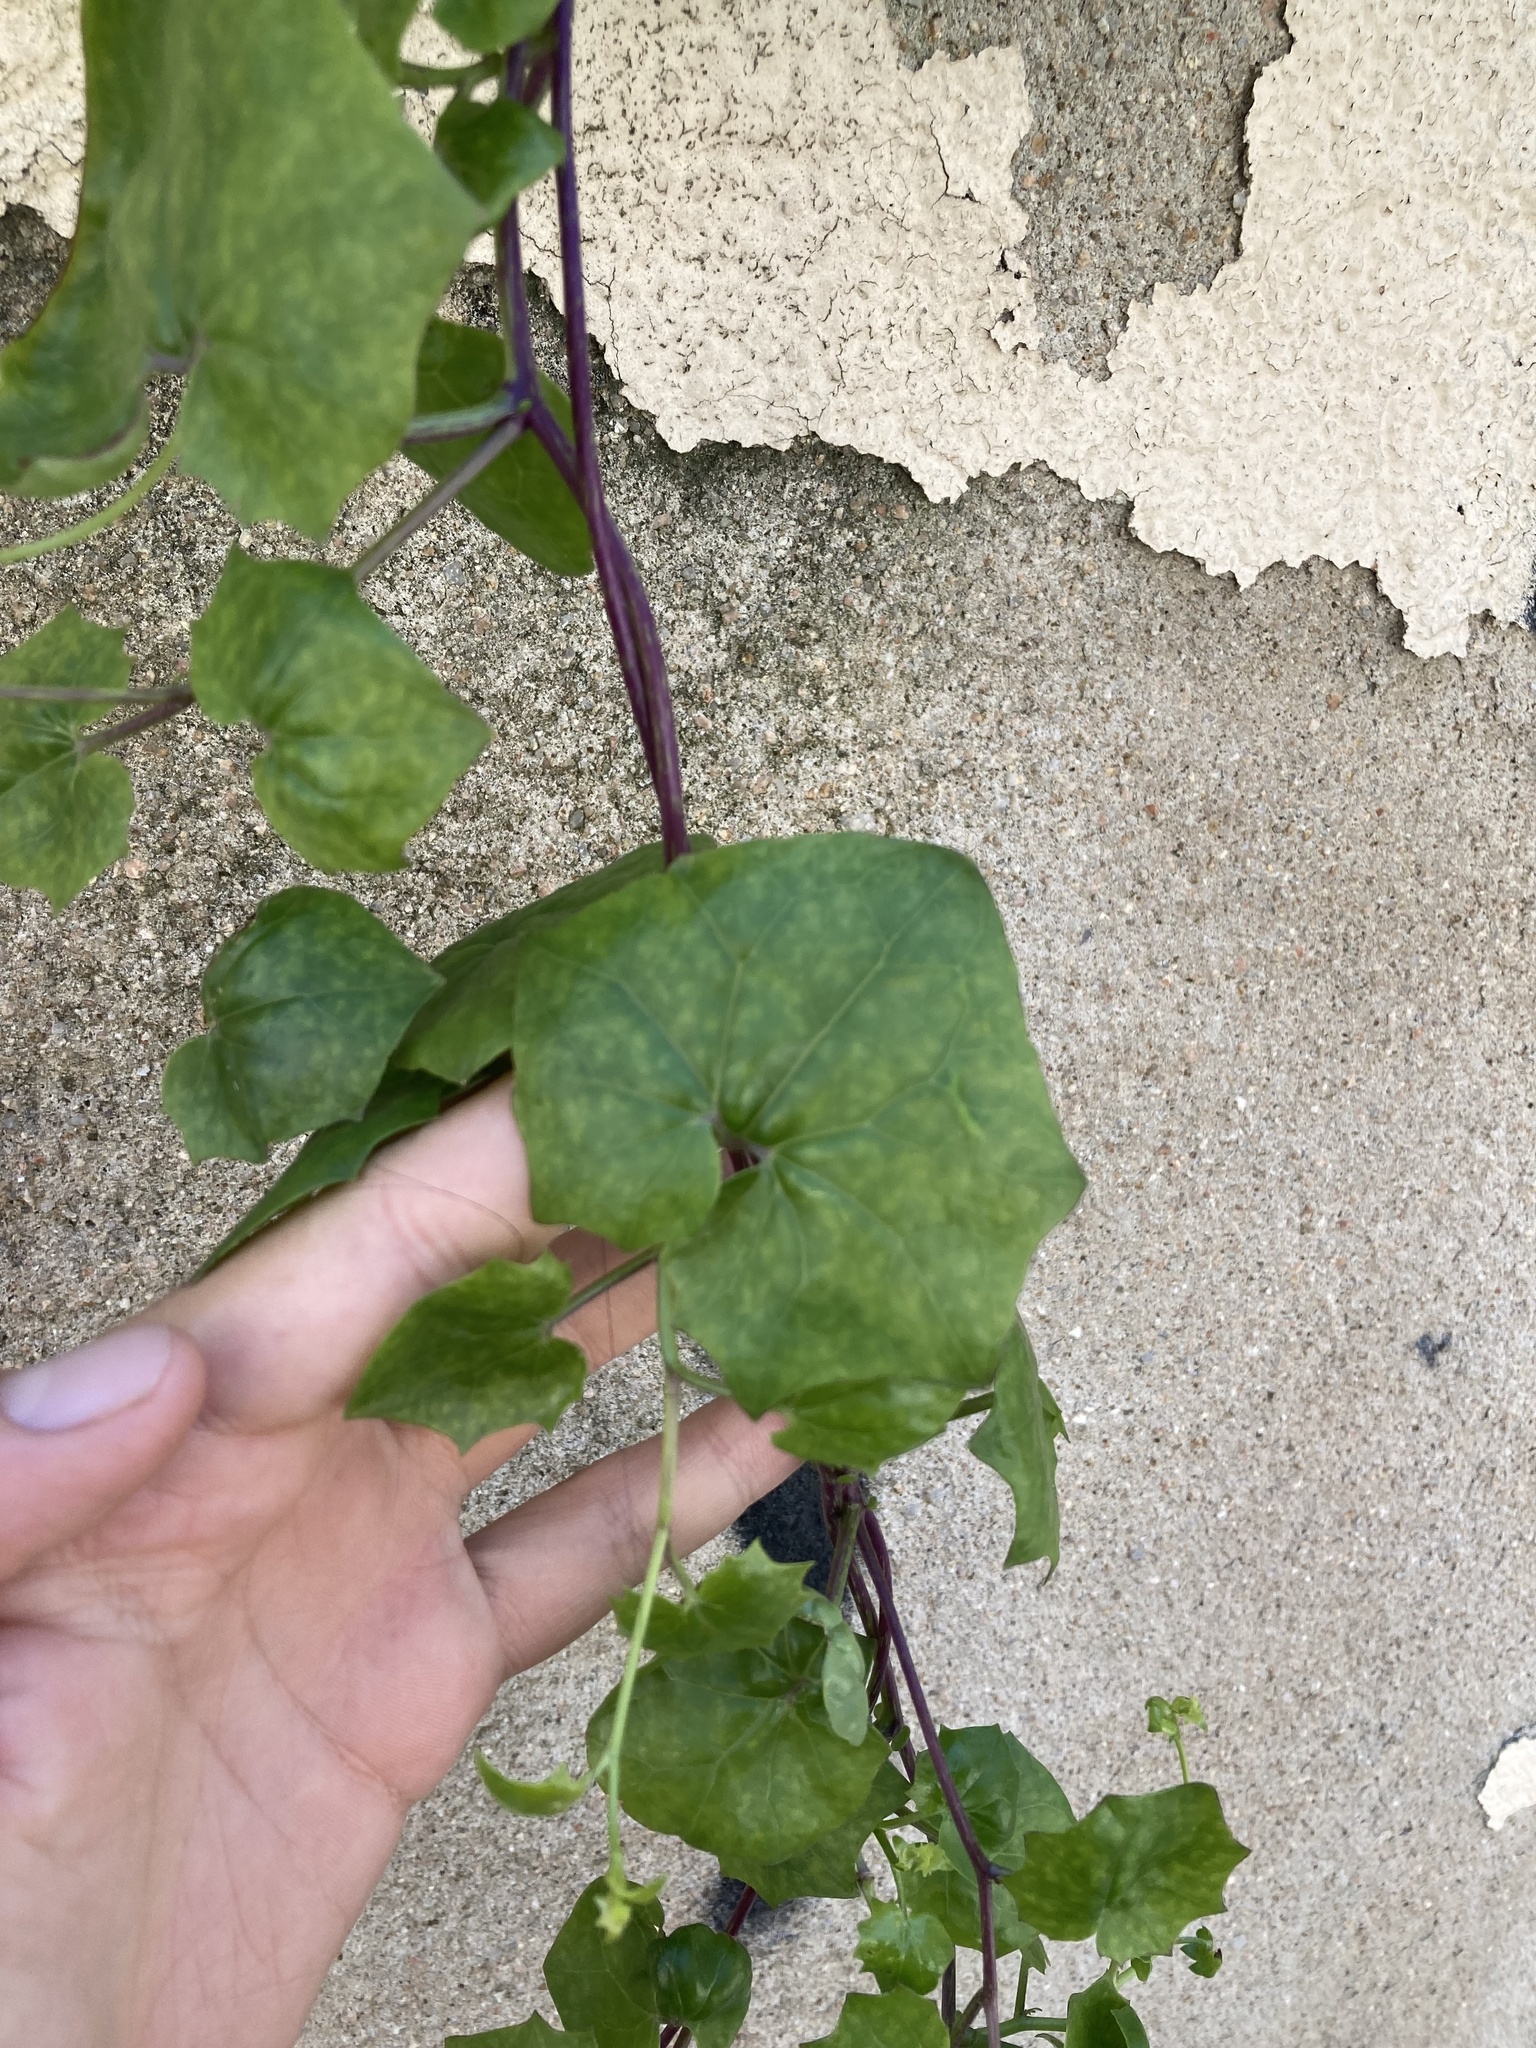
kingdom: Plantae
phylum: Tracheophyta
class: Magnoliopsida
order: Asterales
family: Asteraceae
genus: Delairea
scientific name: Delairea odorata
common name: Cape-ivy
